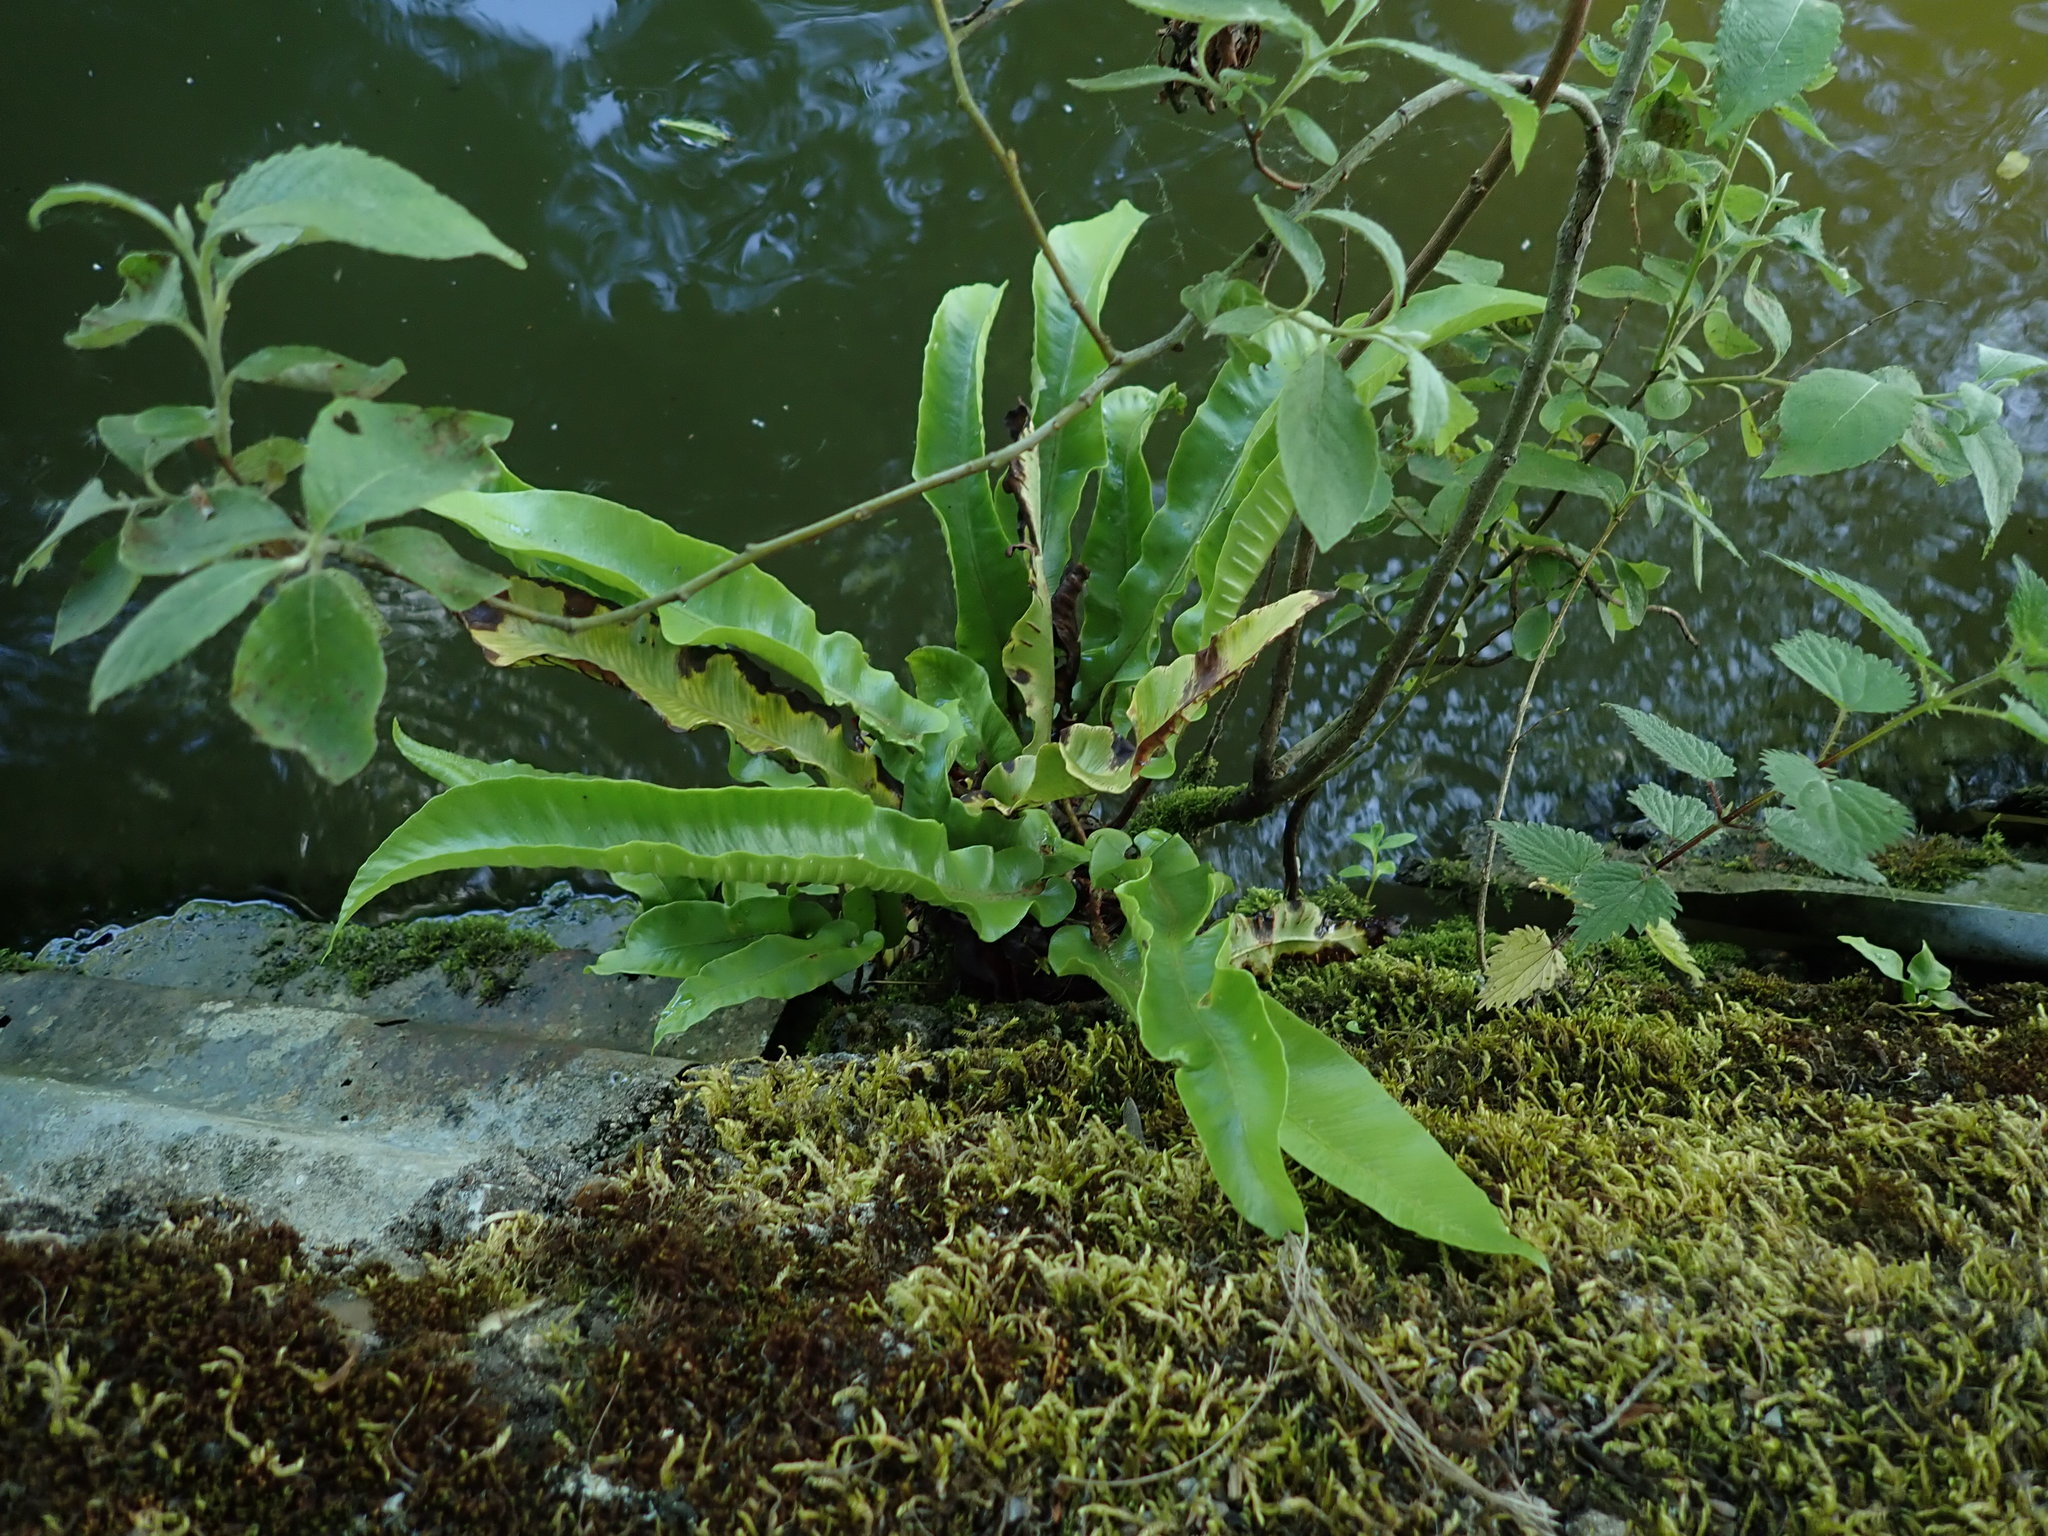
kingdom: Plantae
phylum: Tracheophyta
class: Polypodiopsida
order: Polypodiales
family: Aspleniaceae
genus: Asplenium
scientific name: Asplenium scolopendrium
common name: Hart's-tongue fern
